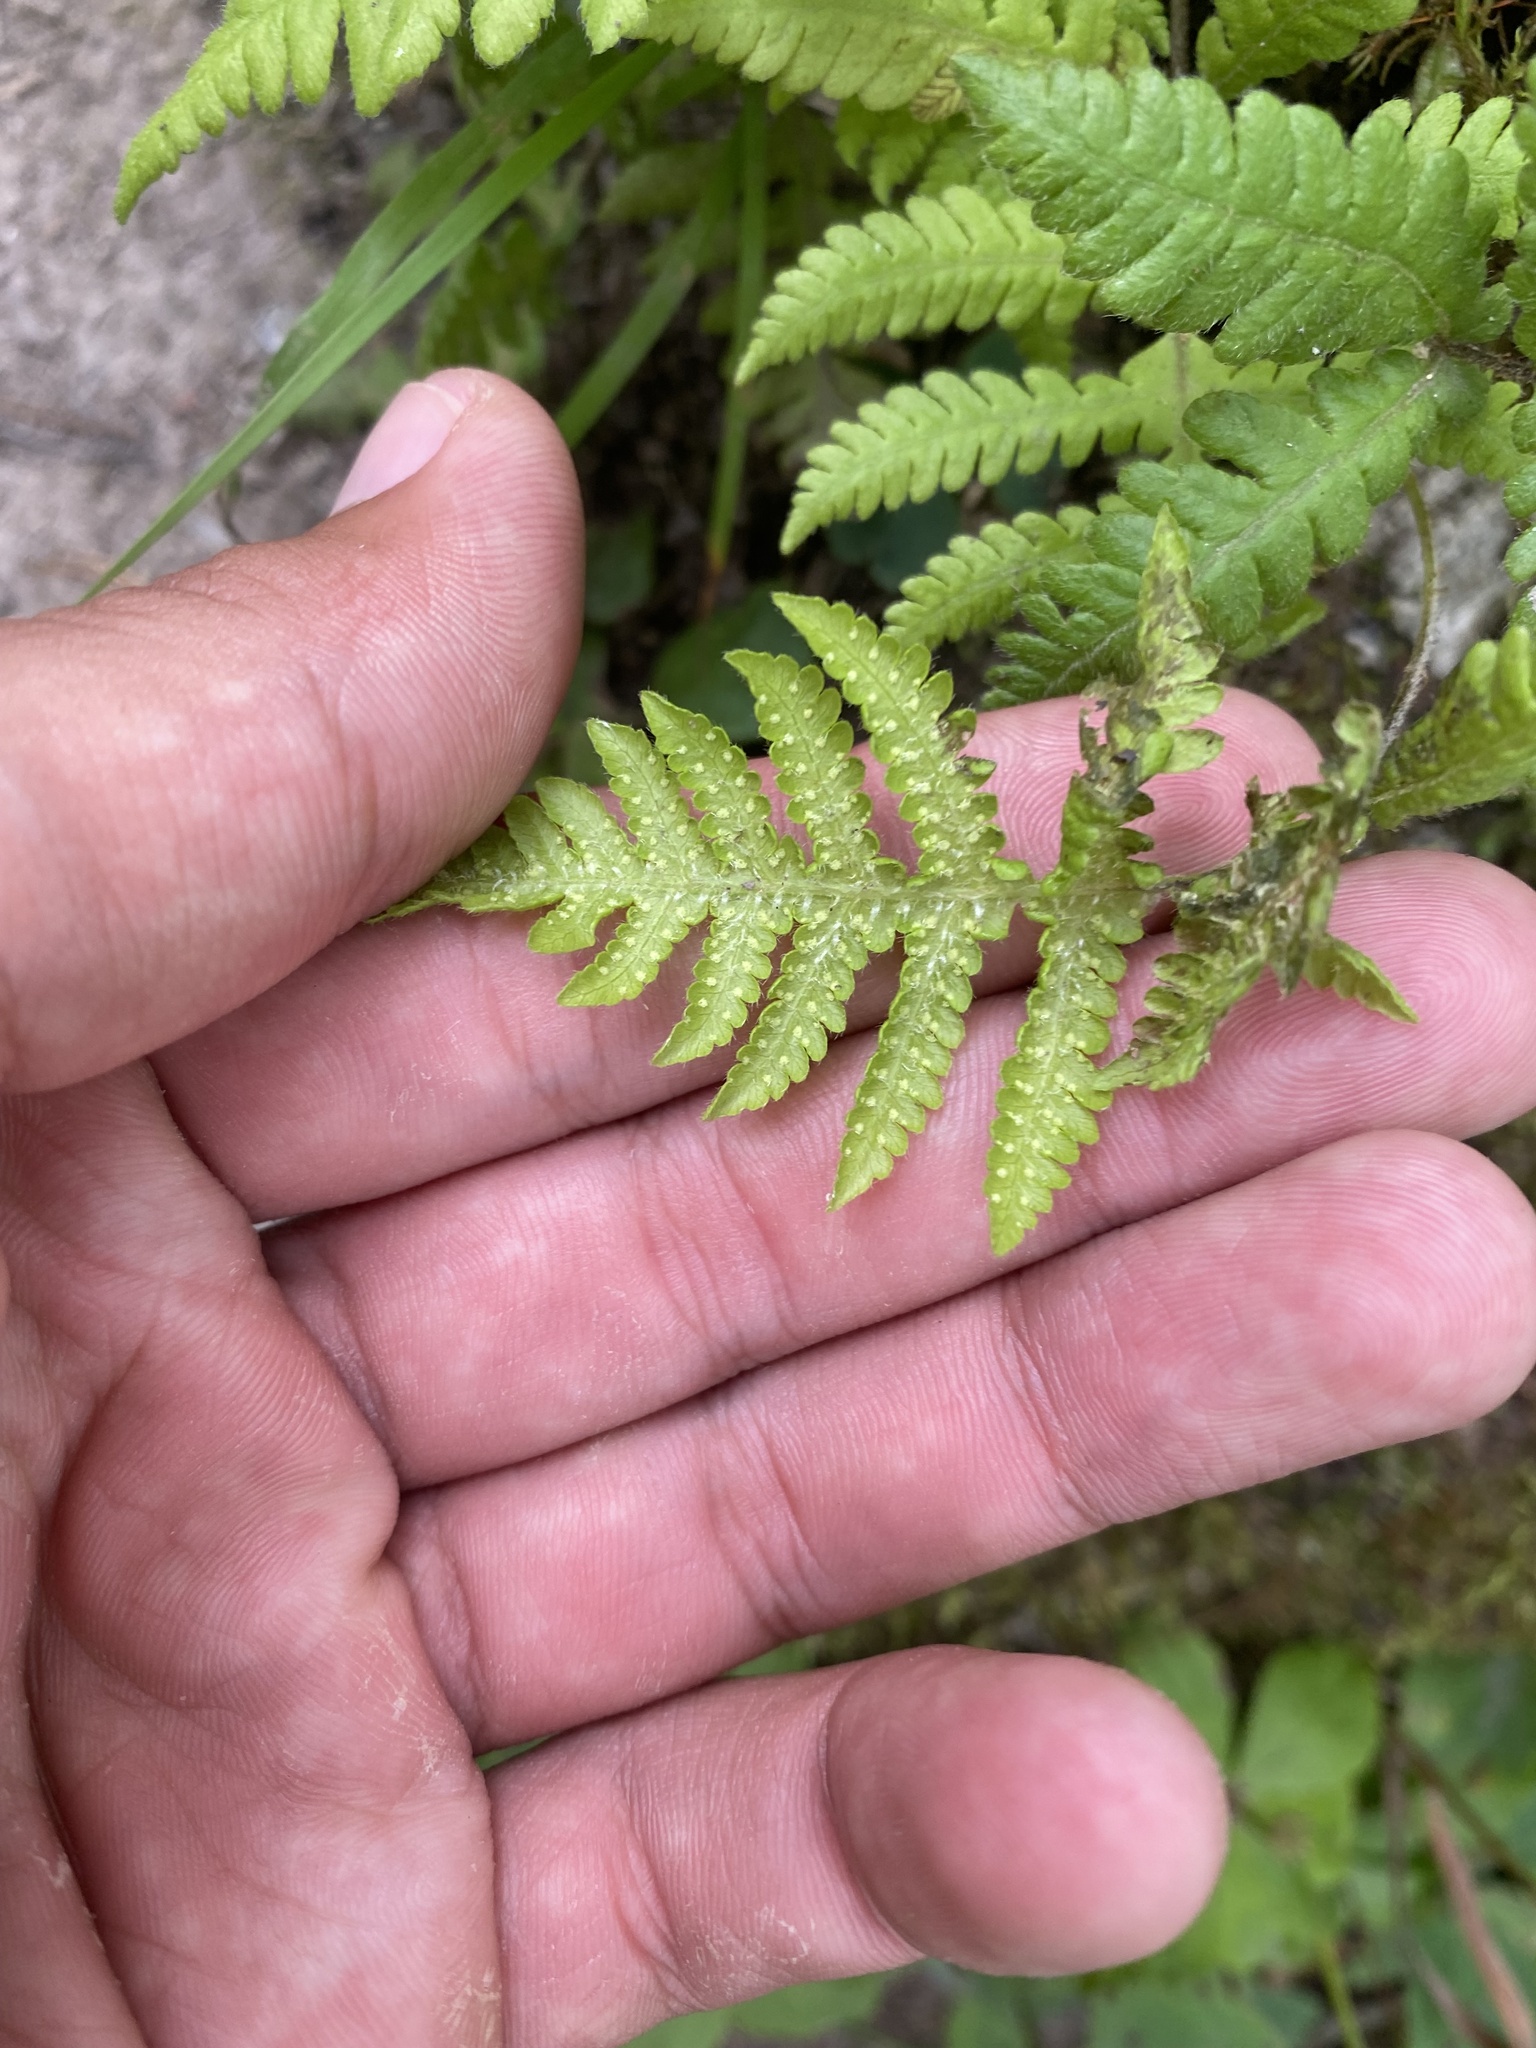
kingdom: Plantae
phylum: Tracheophyta
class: Polypodiopsida
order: Polypodiales
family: Thelypteridaceae
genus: Phegopteris
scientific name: Phegopteris connectilis
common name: Beech fern
